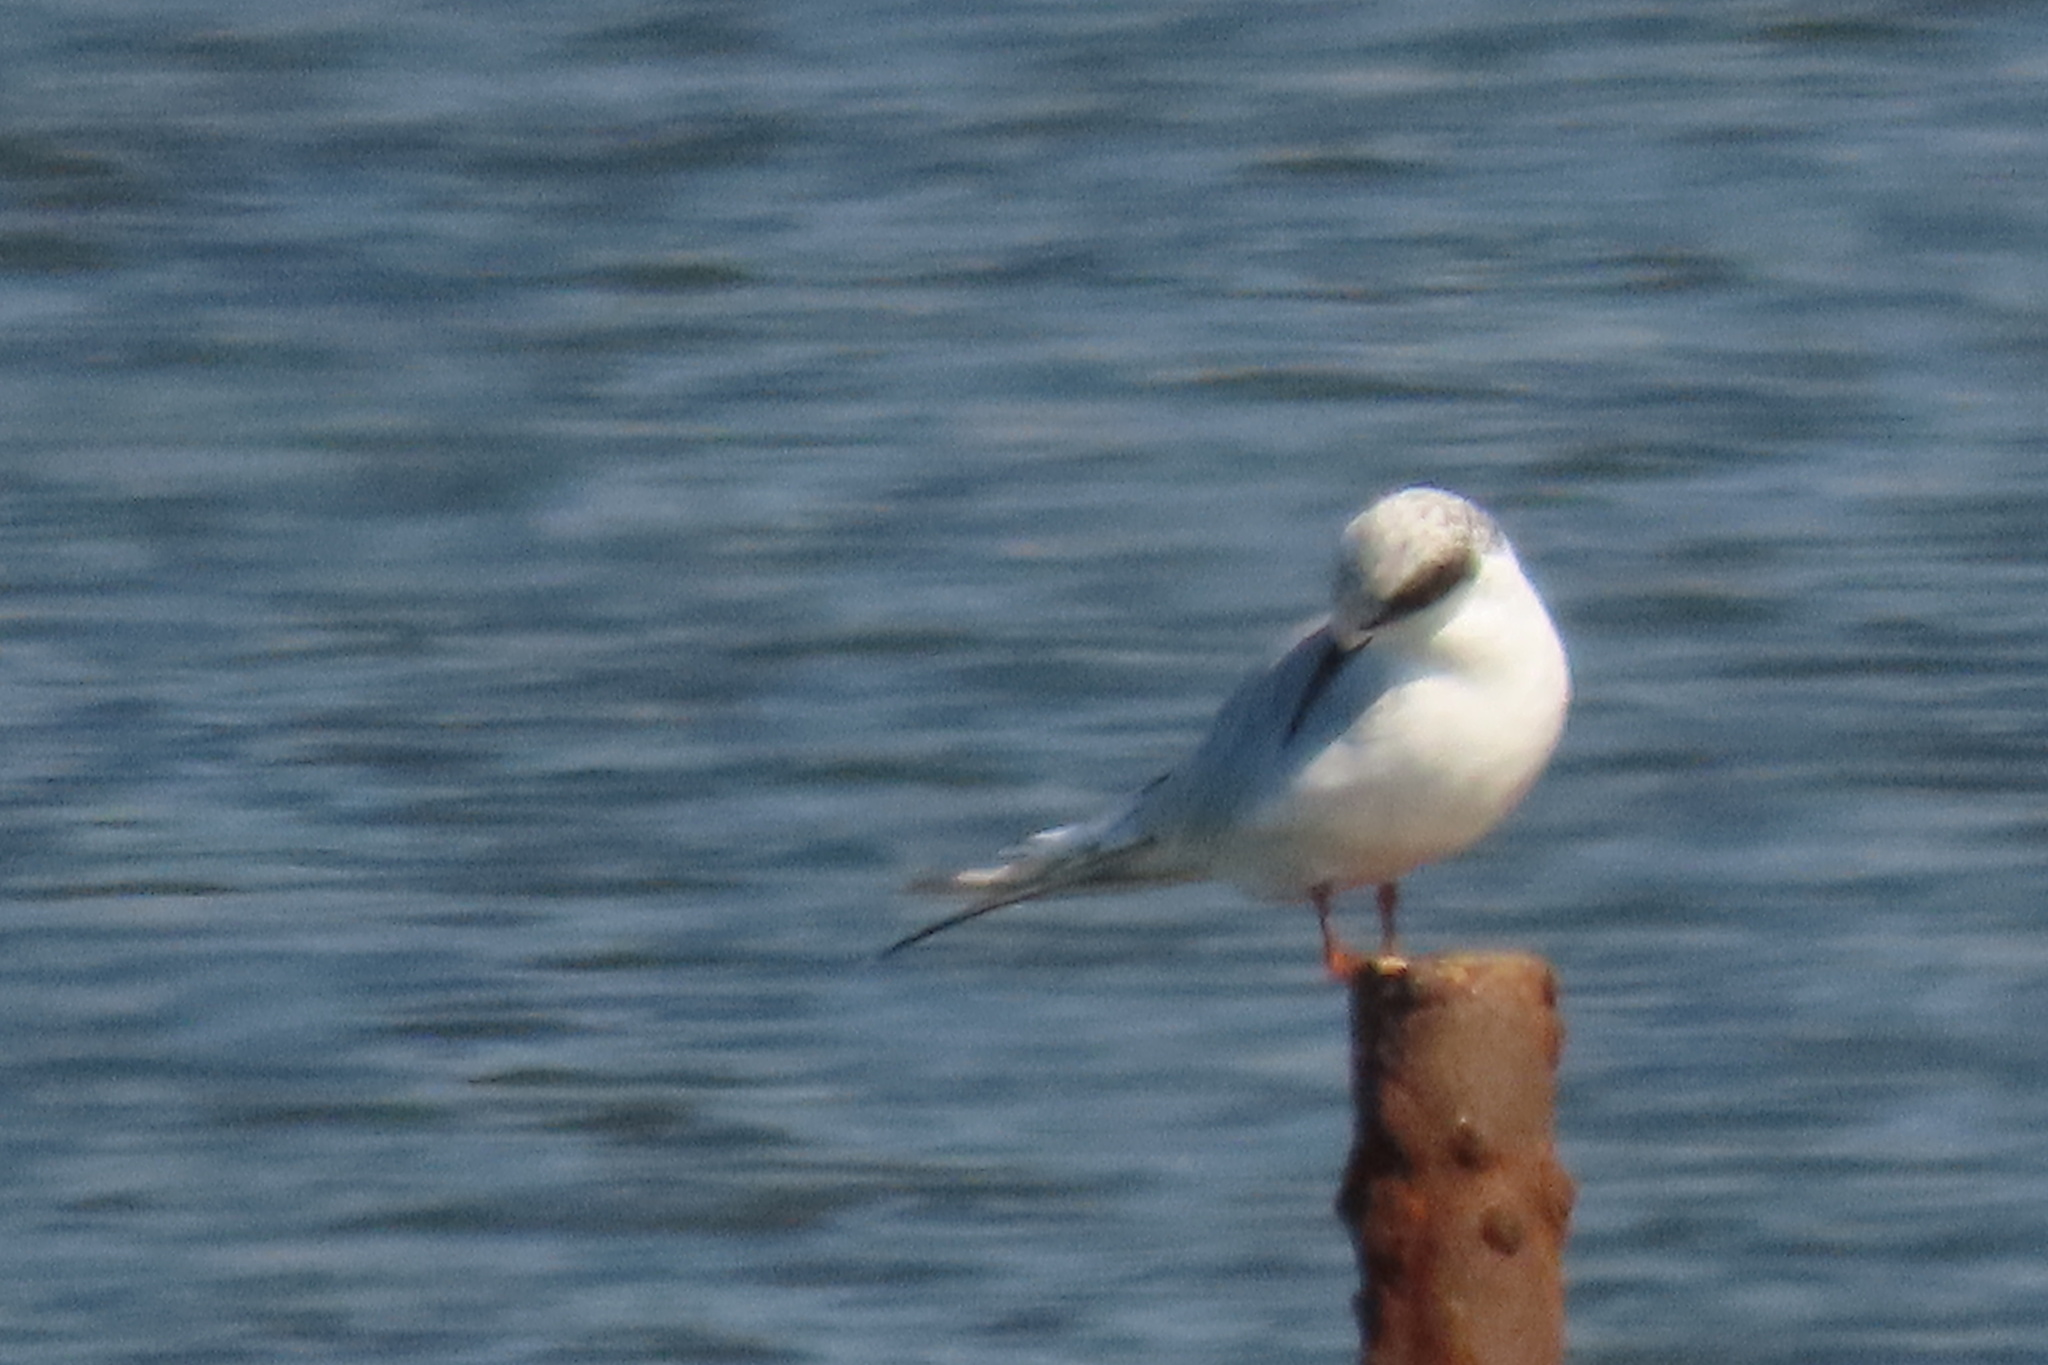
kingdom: Animalia
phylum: Chordata
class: Aves
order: Charadriiformes
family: Laridae
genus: Sterna
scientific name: Sterna forsteri
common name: Forster's tern
